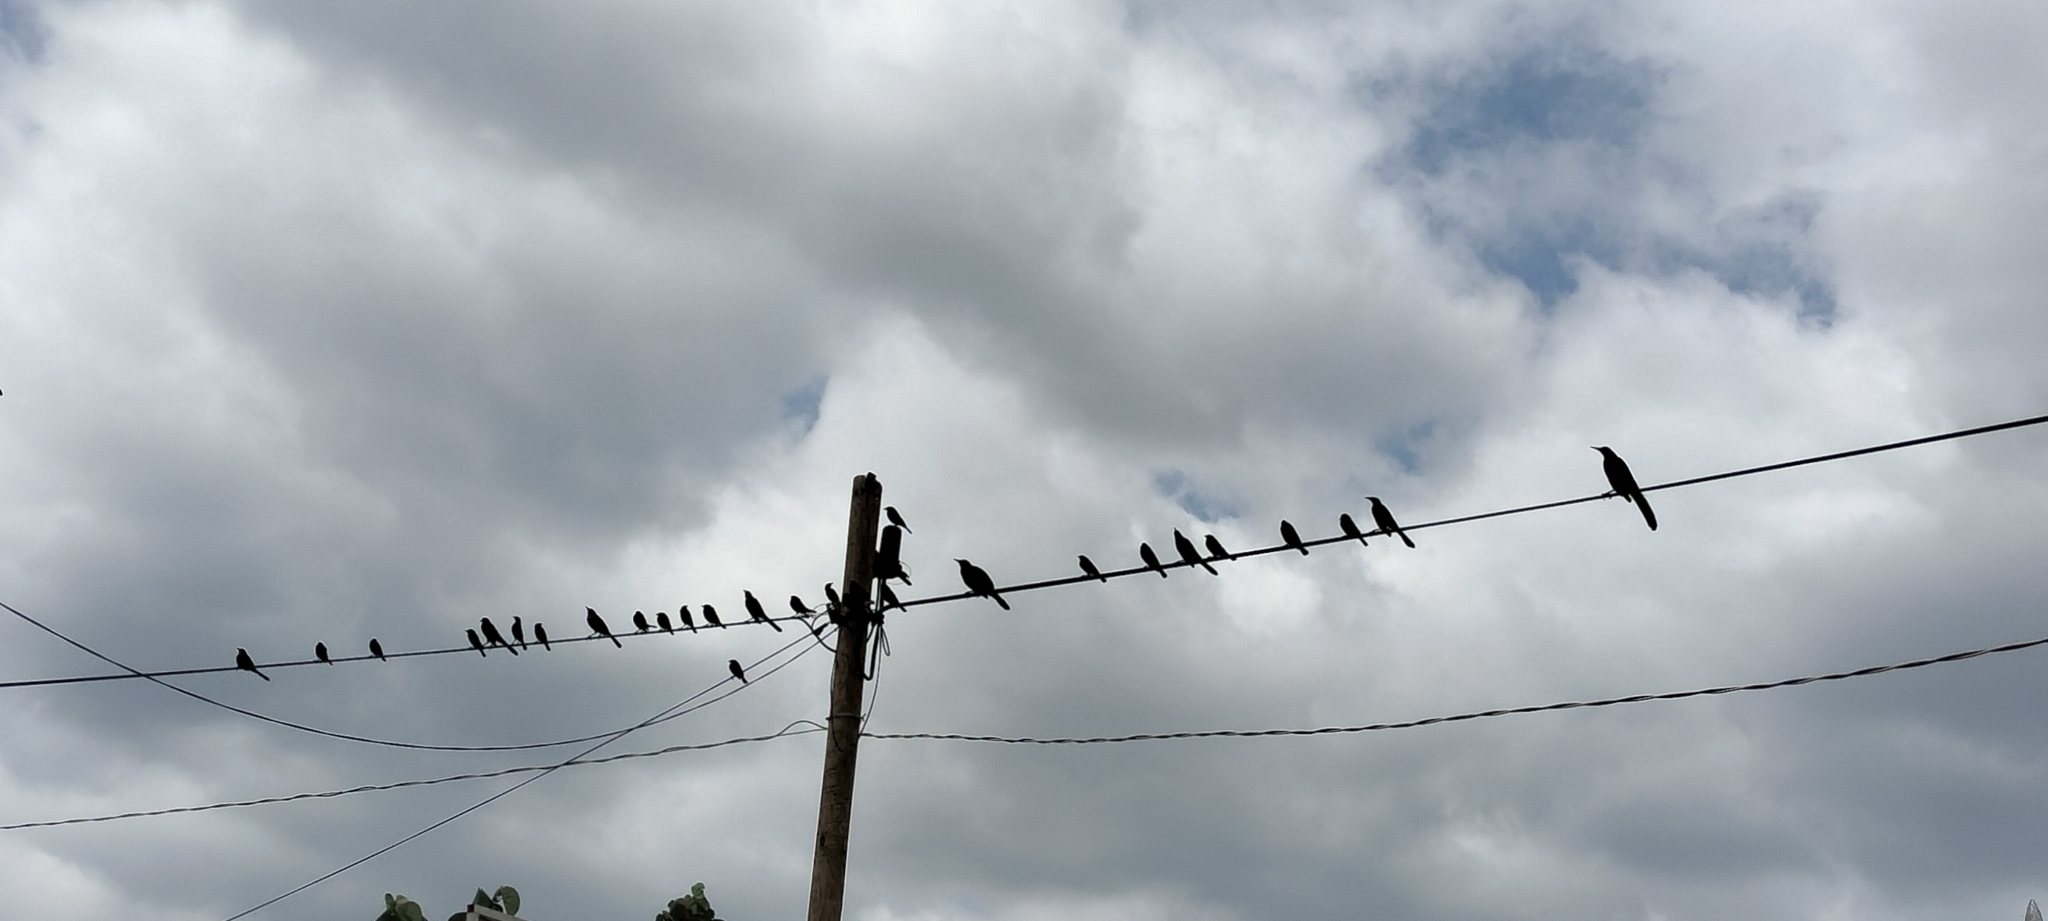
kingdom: Animalia
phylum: Chordata
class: Aves
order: Passeriformes
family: Icteridae
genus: Quiscalus
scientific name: Quiscalus mexicanus
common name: Great-tailed grackle
